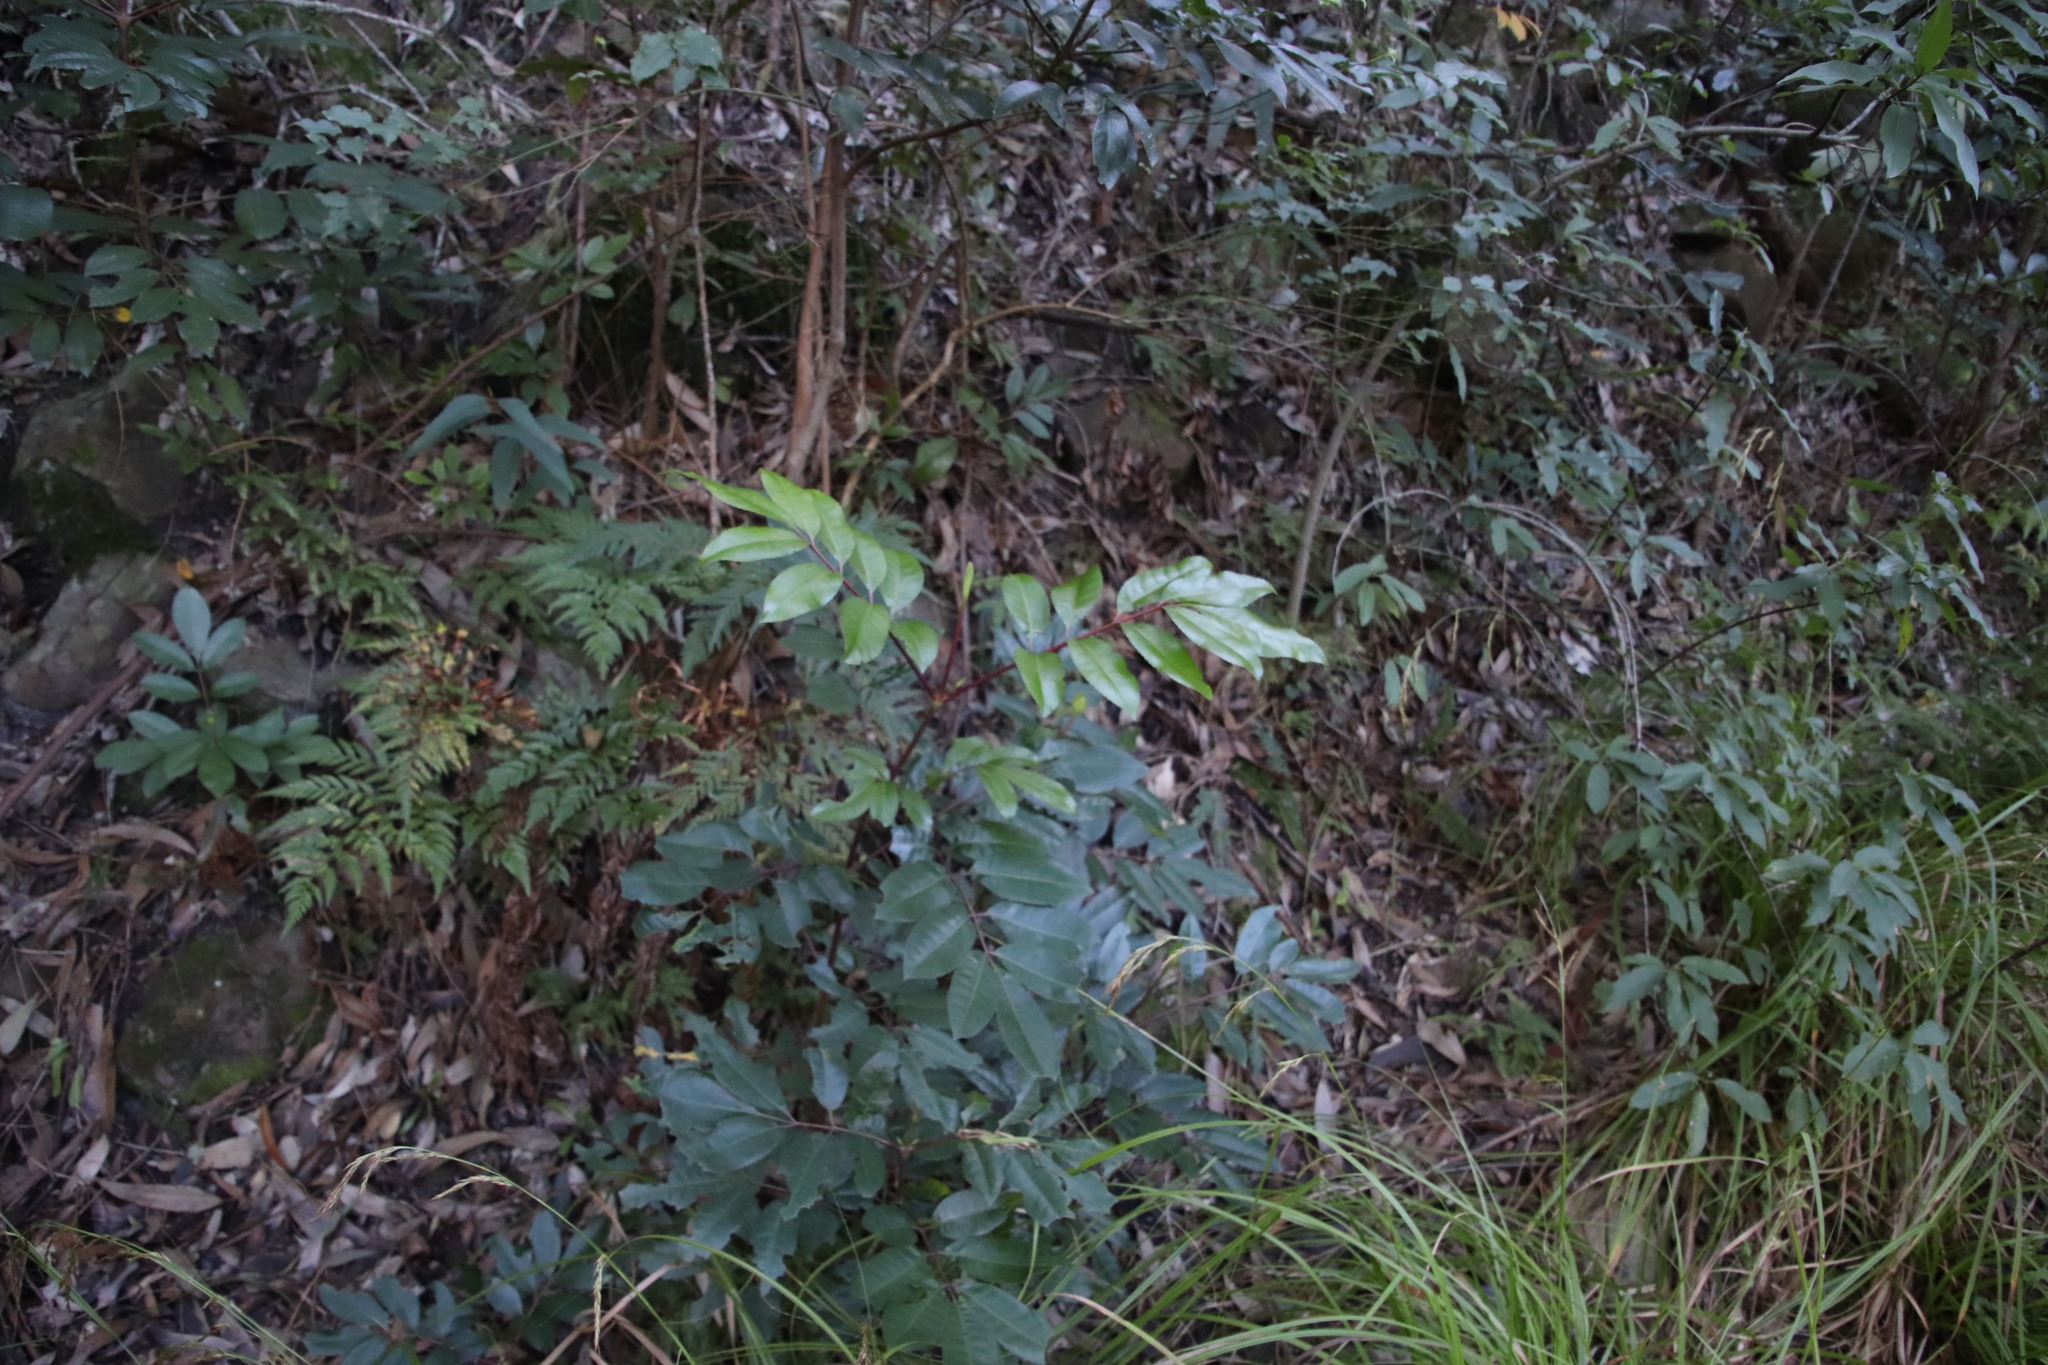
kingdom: Plantae
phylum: Tracheophyta
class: Magnoliopsida
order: Oxalidales
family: Cunoniaceae
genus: Cunonia
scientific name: Cunonia capensis
